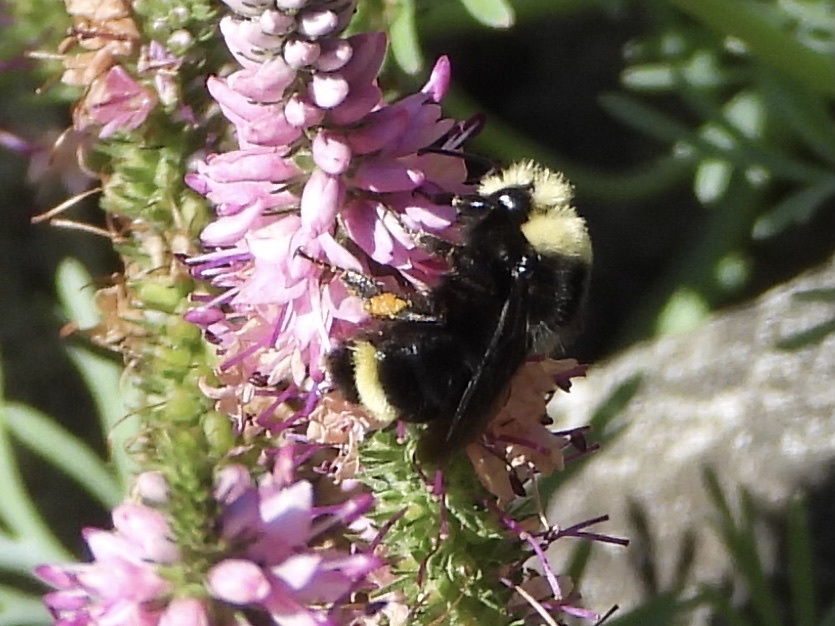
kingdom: Animalia
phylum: Arthropoda
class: Insecta
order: Hymenoptera
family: Apidae
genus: Bombus
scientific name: Bombus vosnesenskii
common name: Vosnesensky bumble bee
